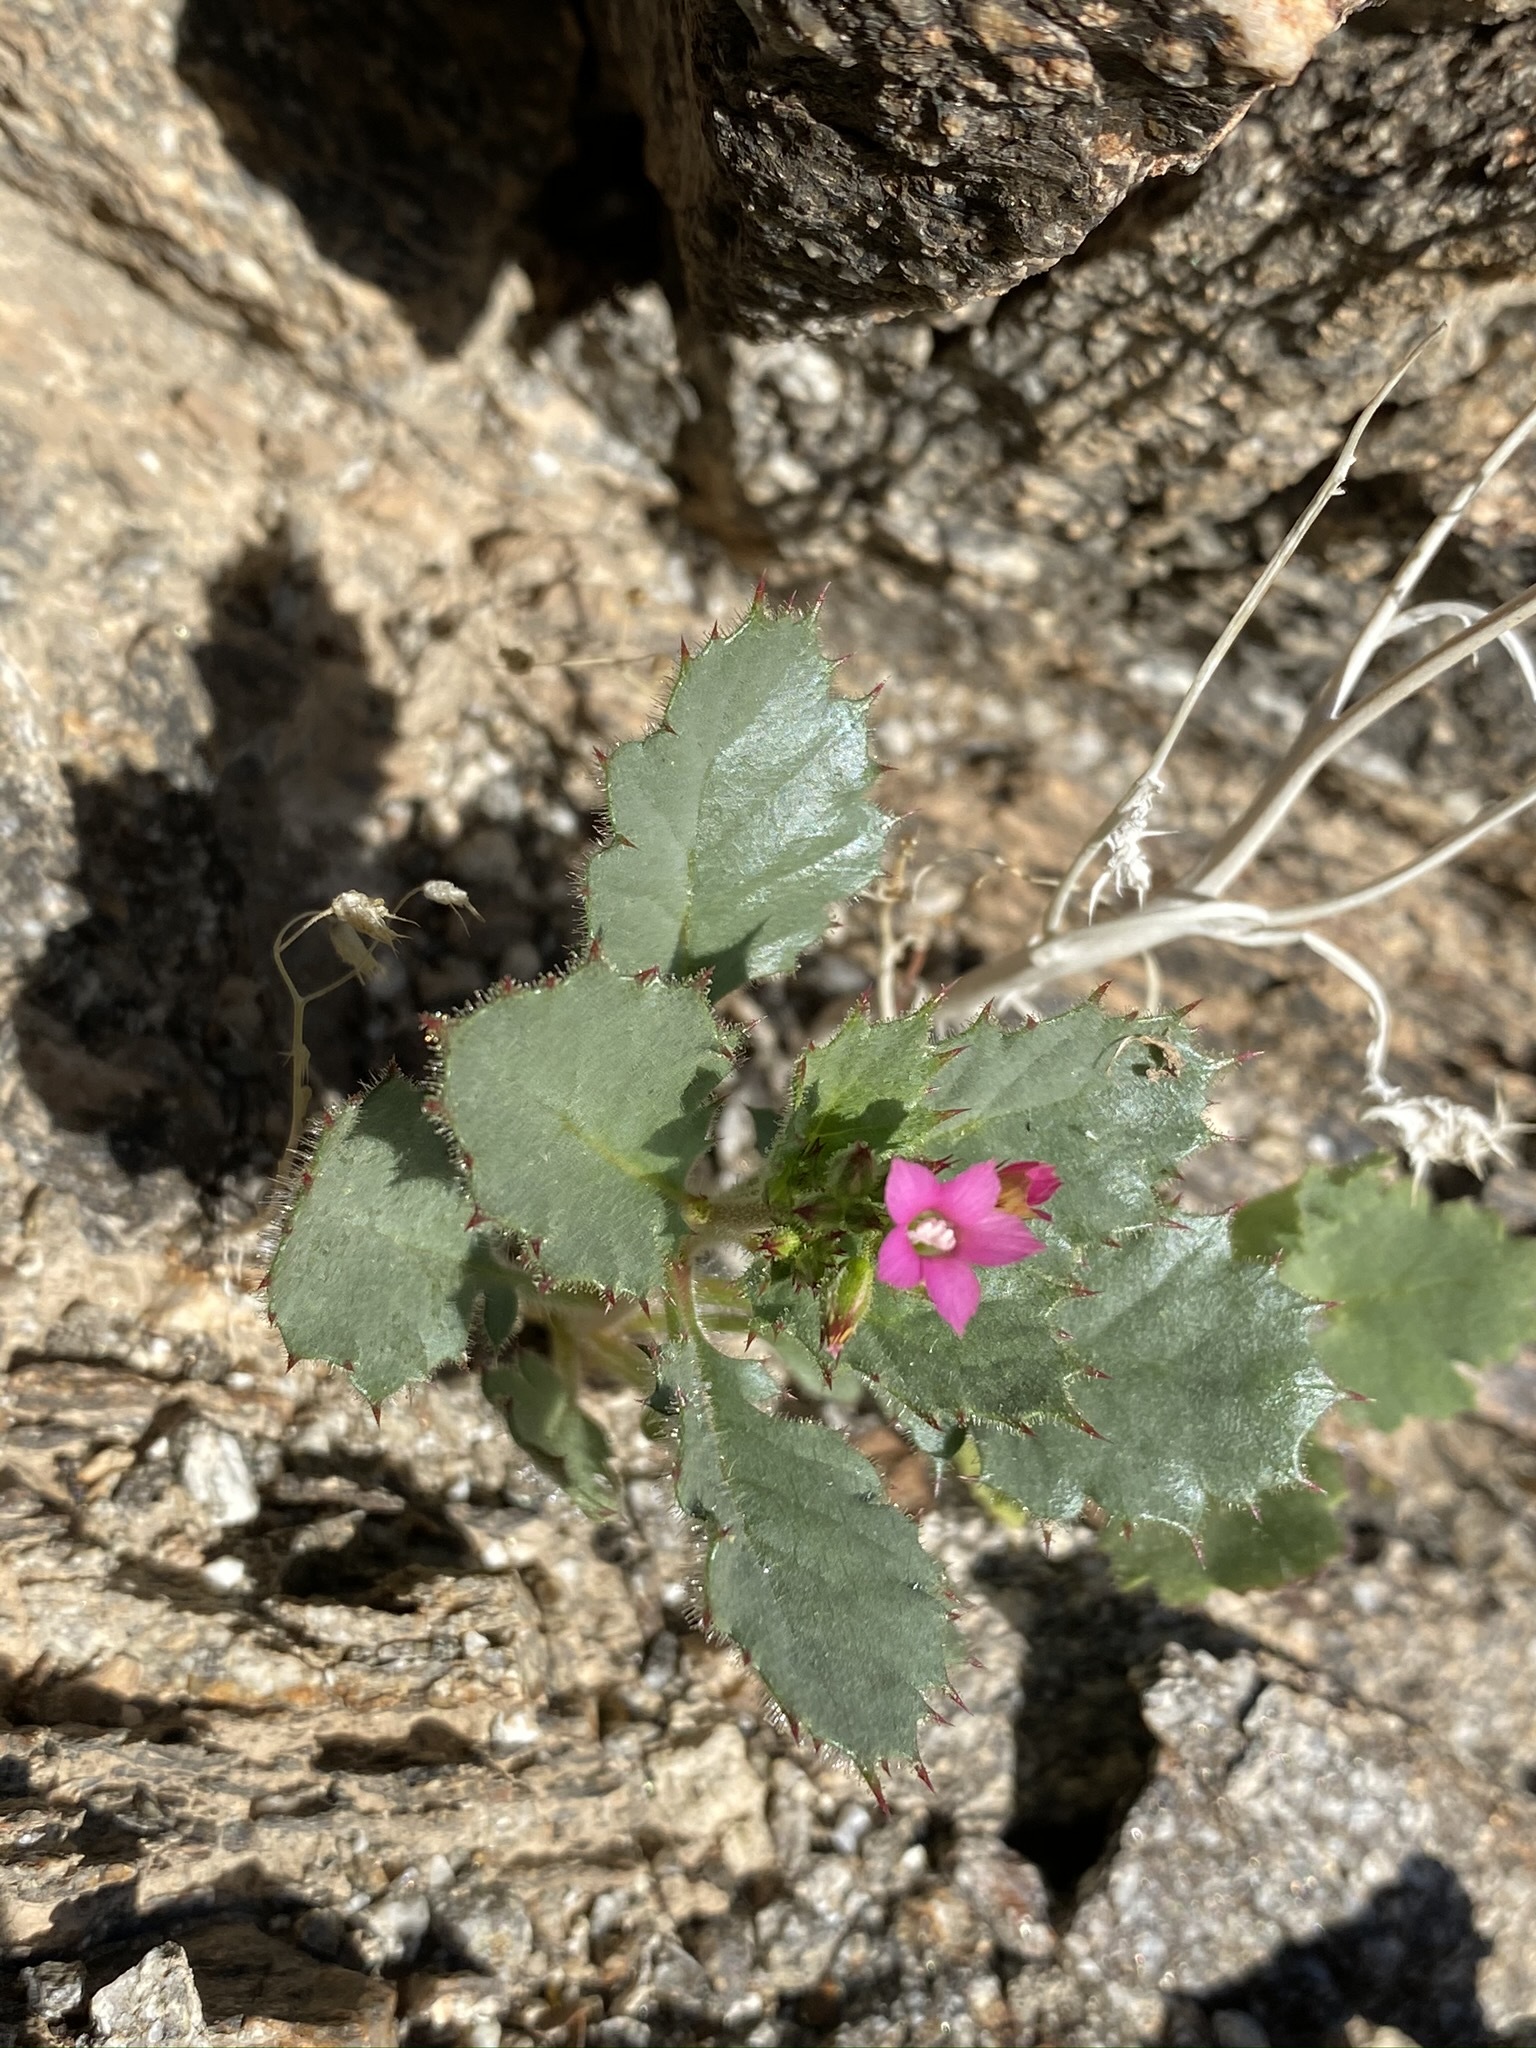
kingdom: Plantae
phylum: Tracheophyta
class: Magnoliopsida
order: Ericales
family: Polemoniaceae
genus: Aliciella
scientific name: Aliciella latifolia
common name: Broad-leaf gilia
